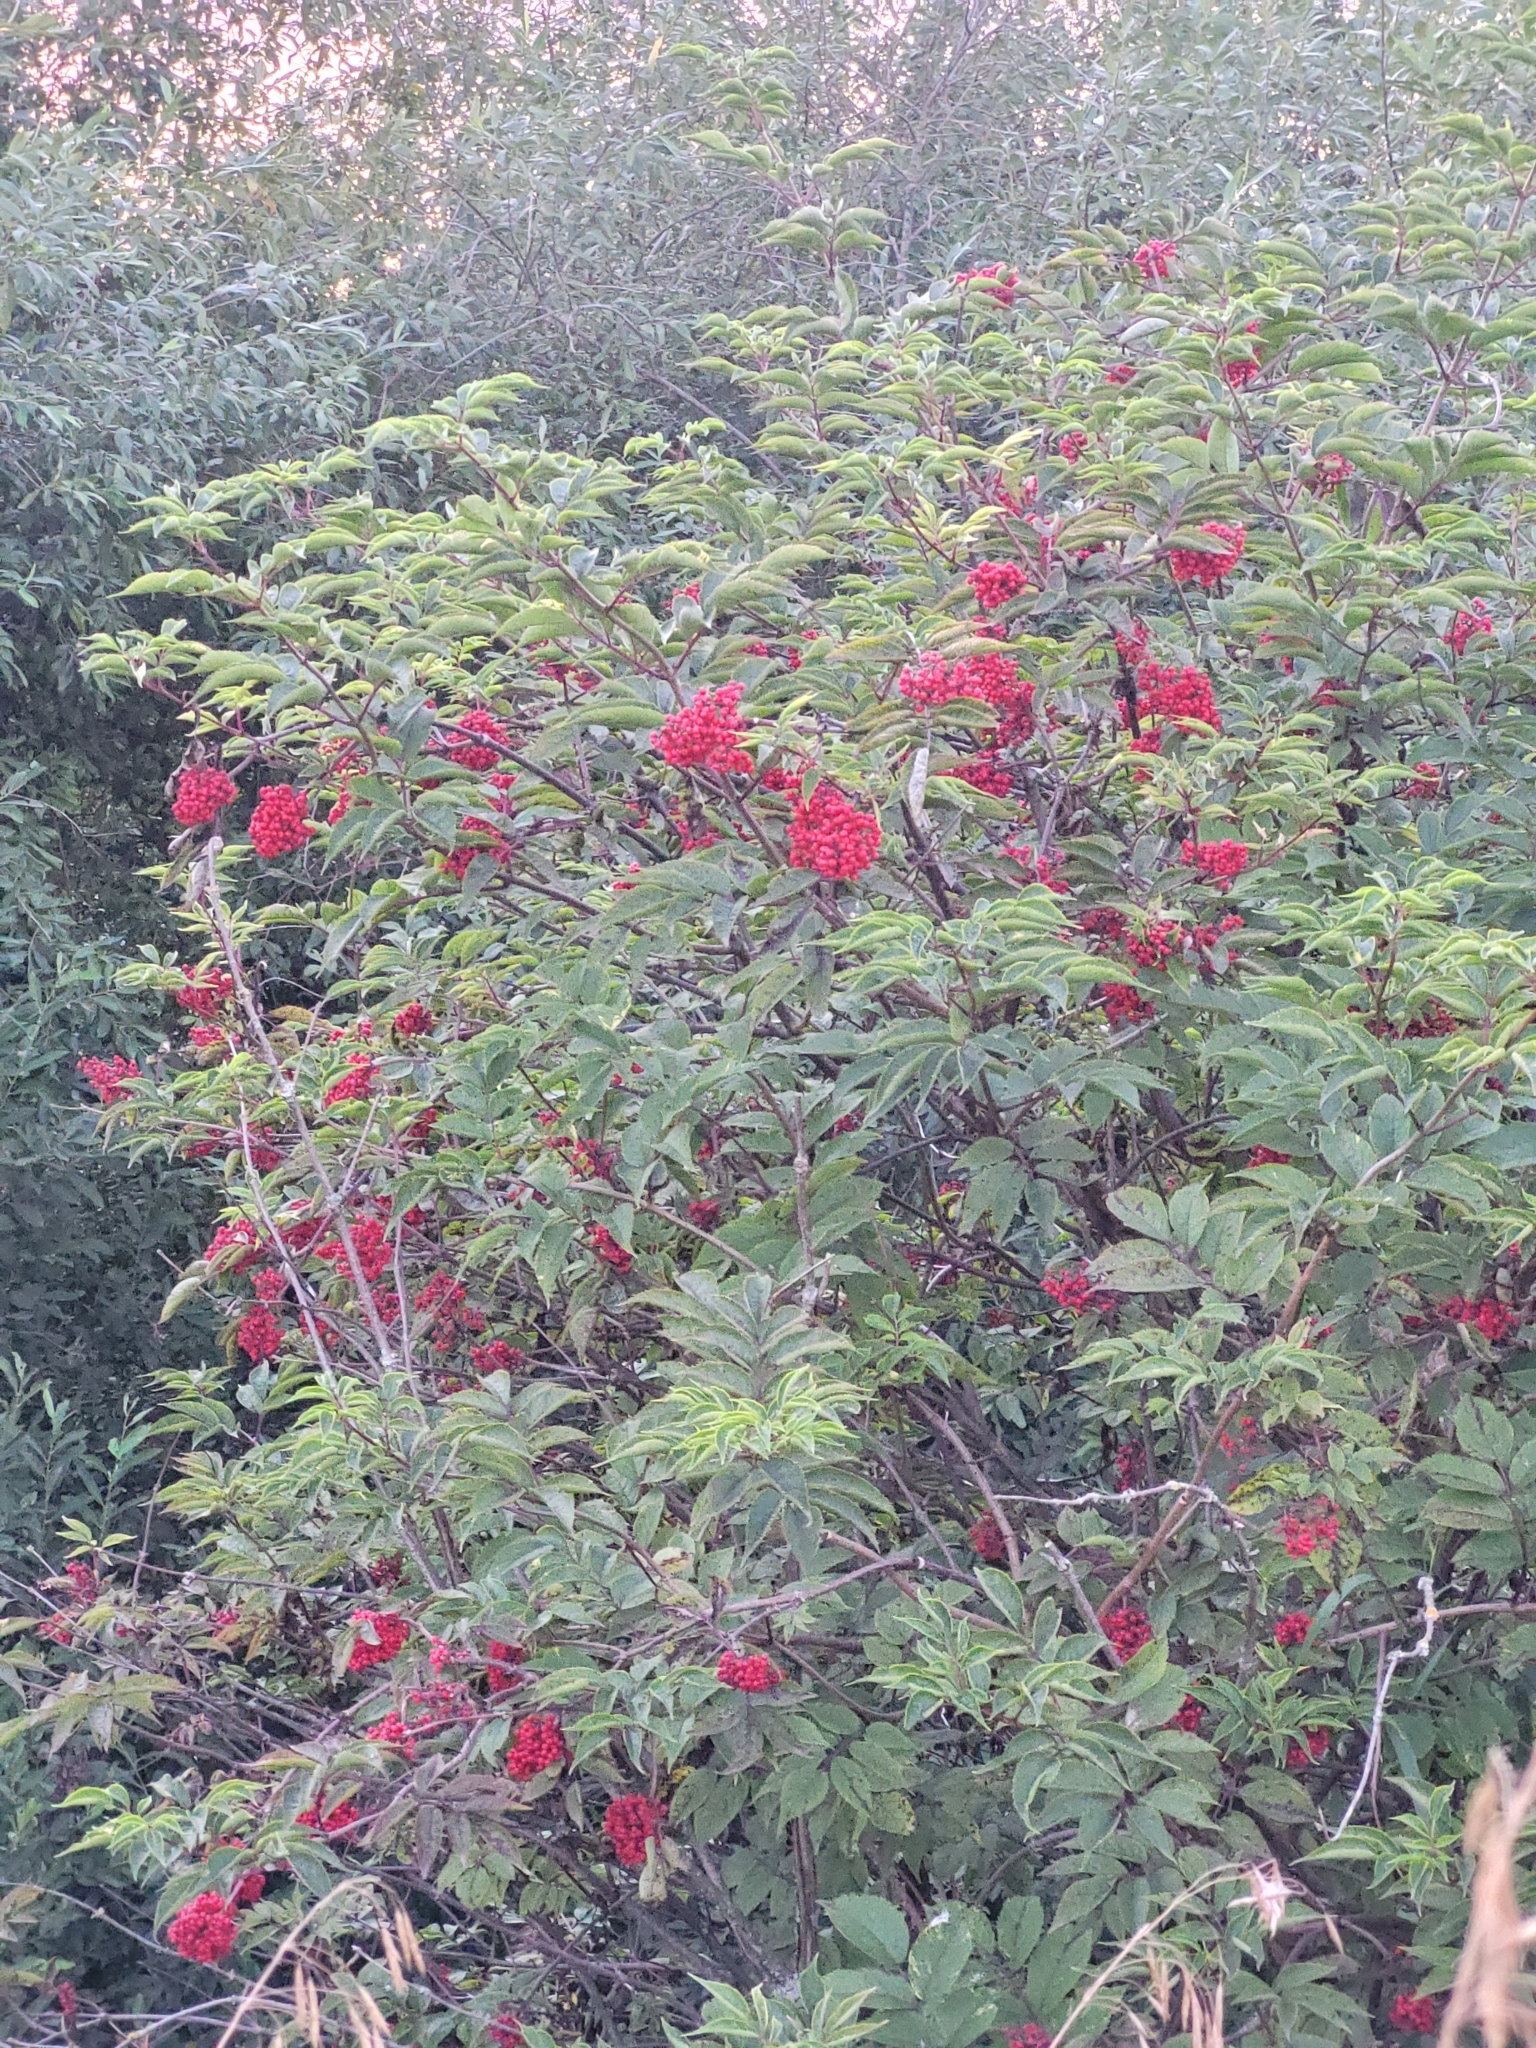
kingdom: Plantae
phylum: Tracheophyta
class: Magnoliopsida
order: Dipsacales
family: Viburnaceae
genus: Sambucus
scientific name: Sambucus racemosa
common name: Red-berried elder
